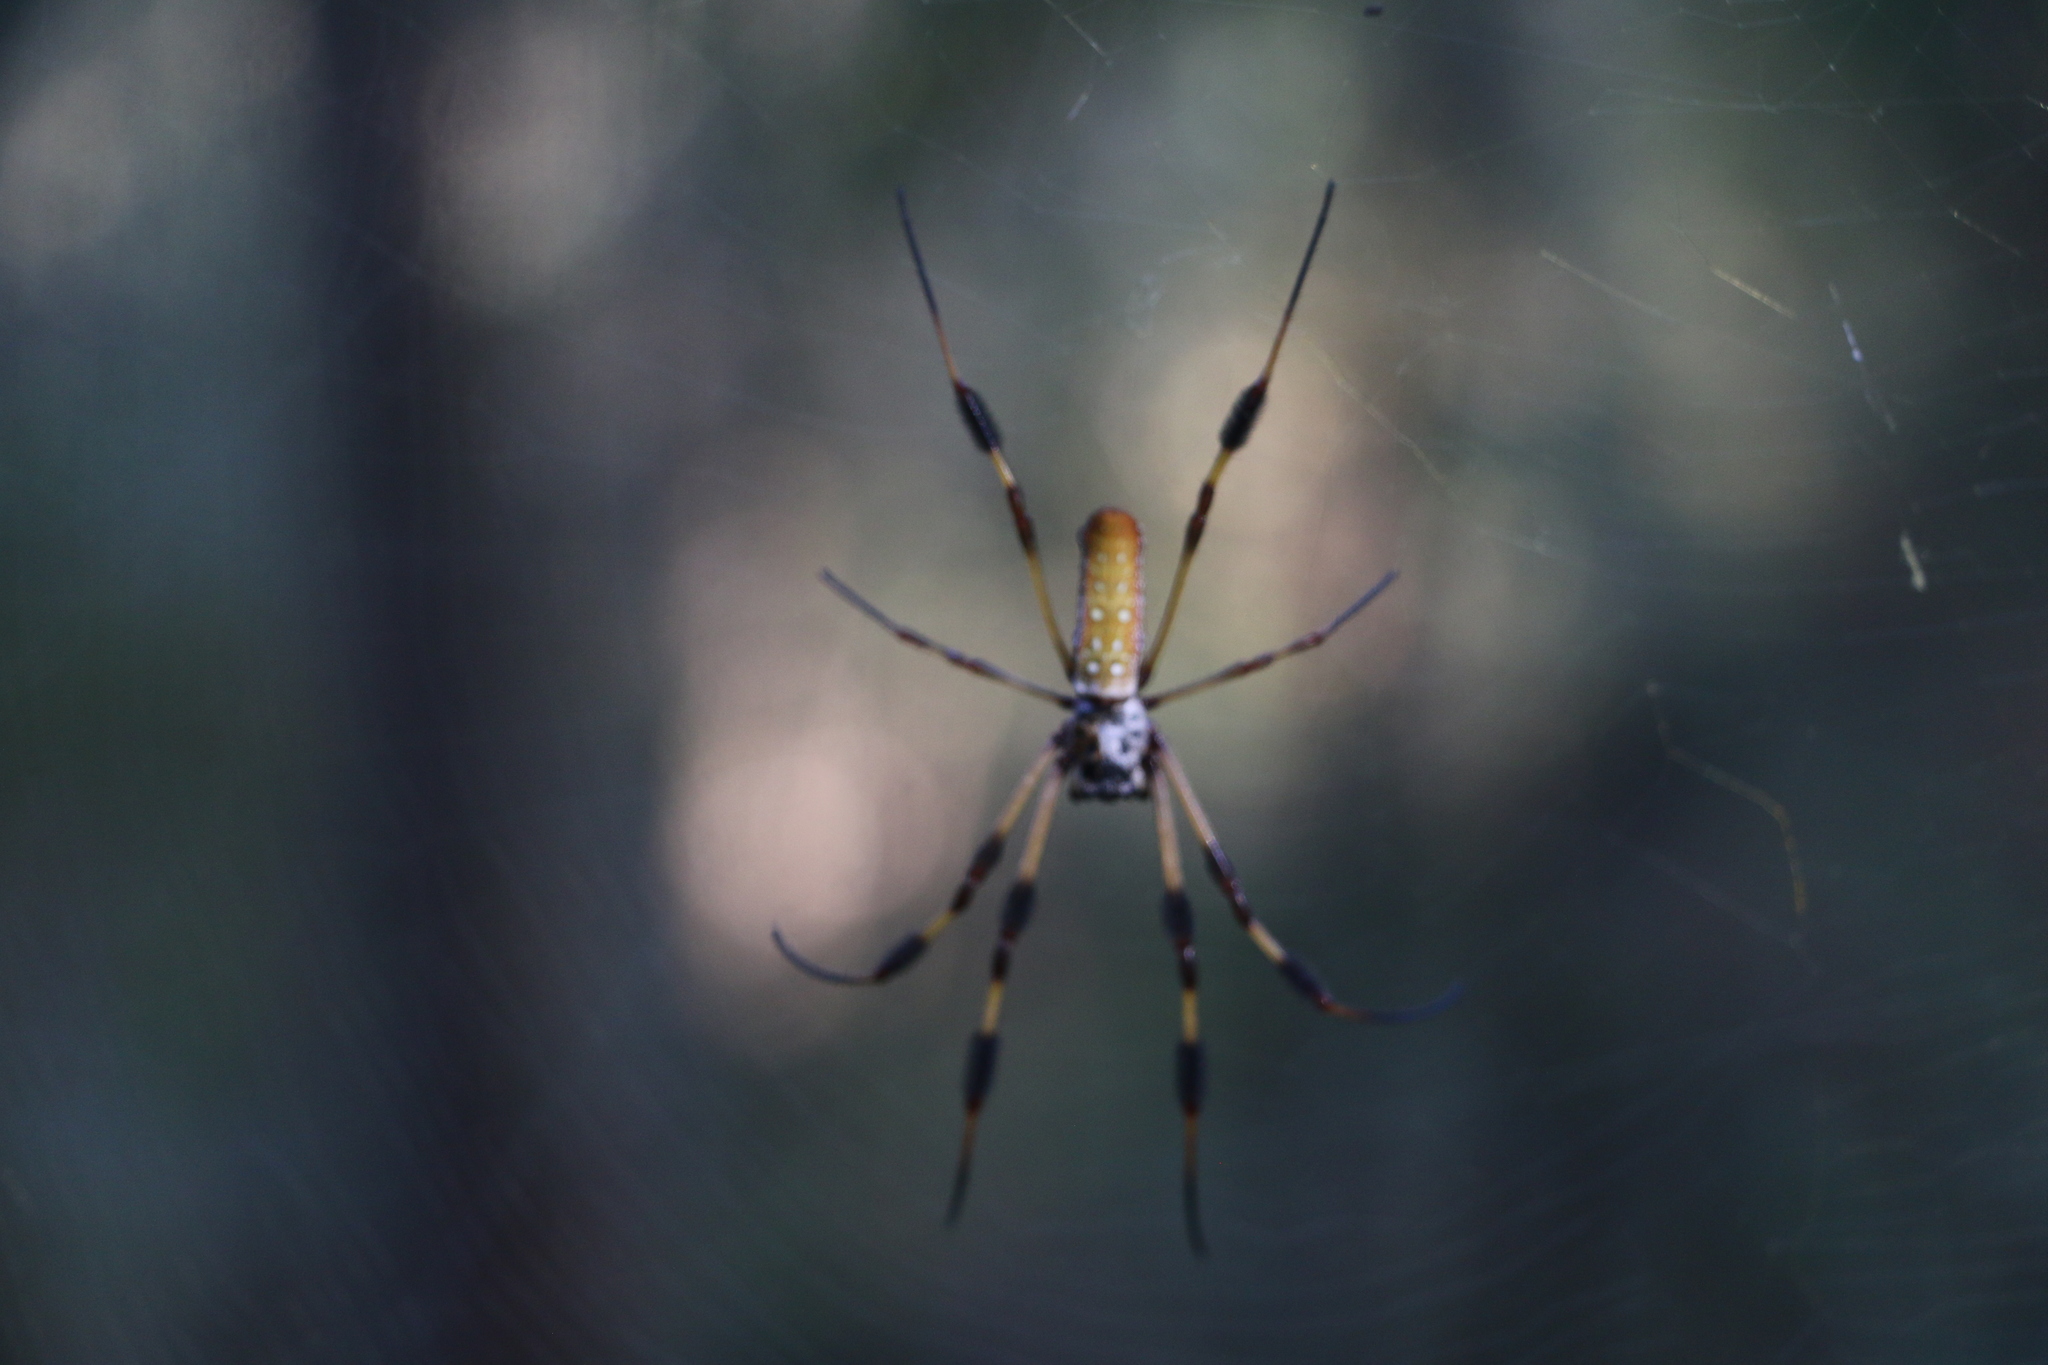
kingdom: Animalia
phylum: Arthropoda
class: Arachnida
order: Araneae
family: Araneidae
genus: Trichonephila
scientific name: Trichonephila clavipes
